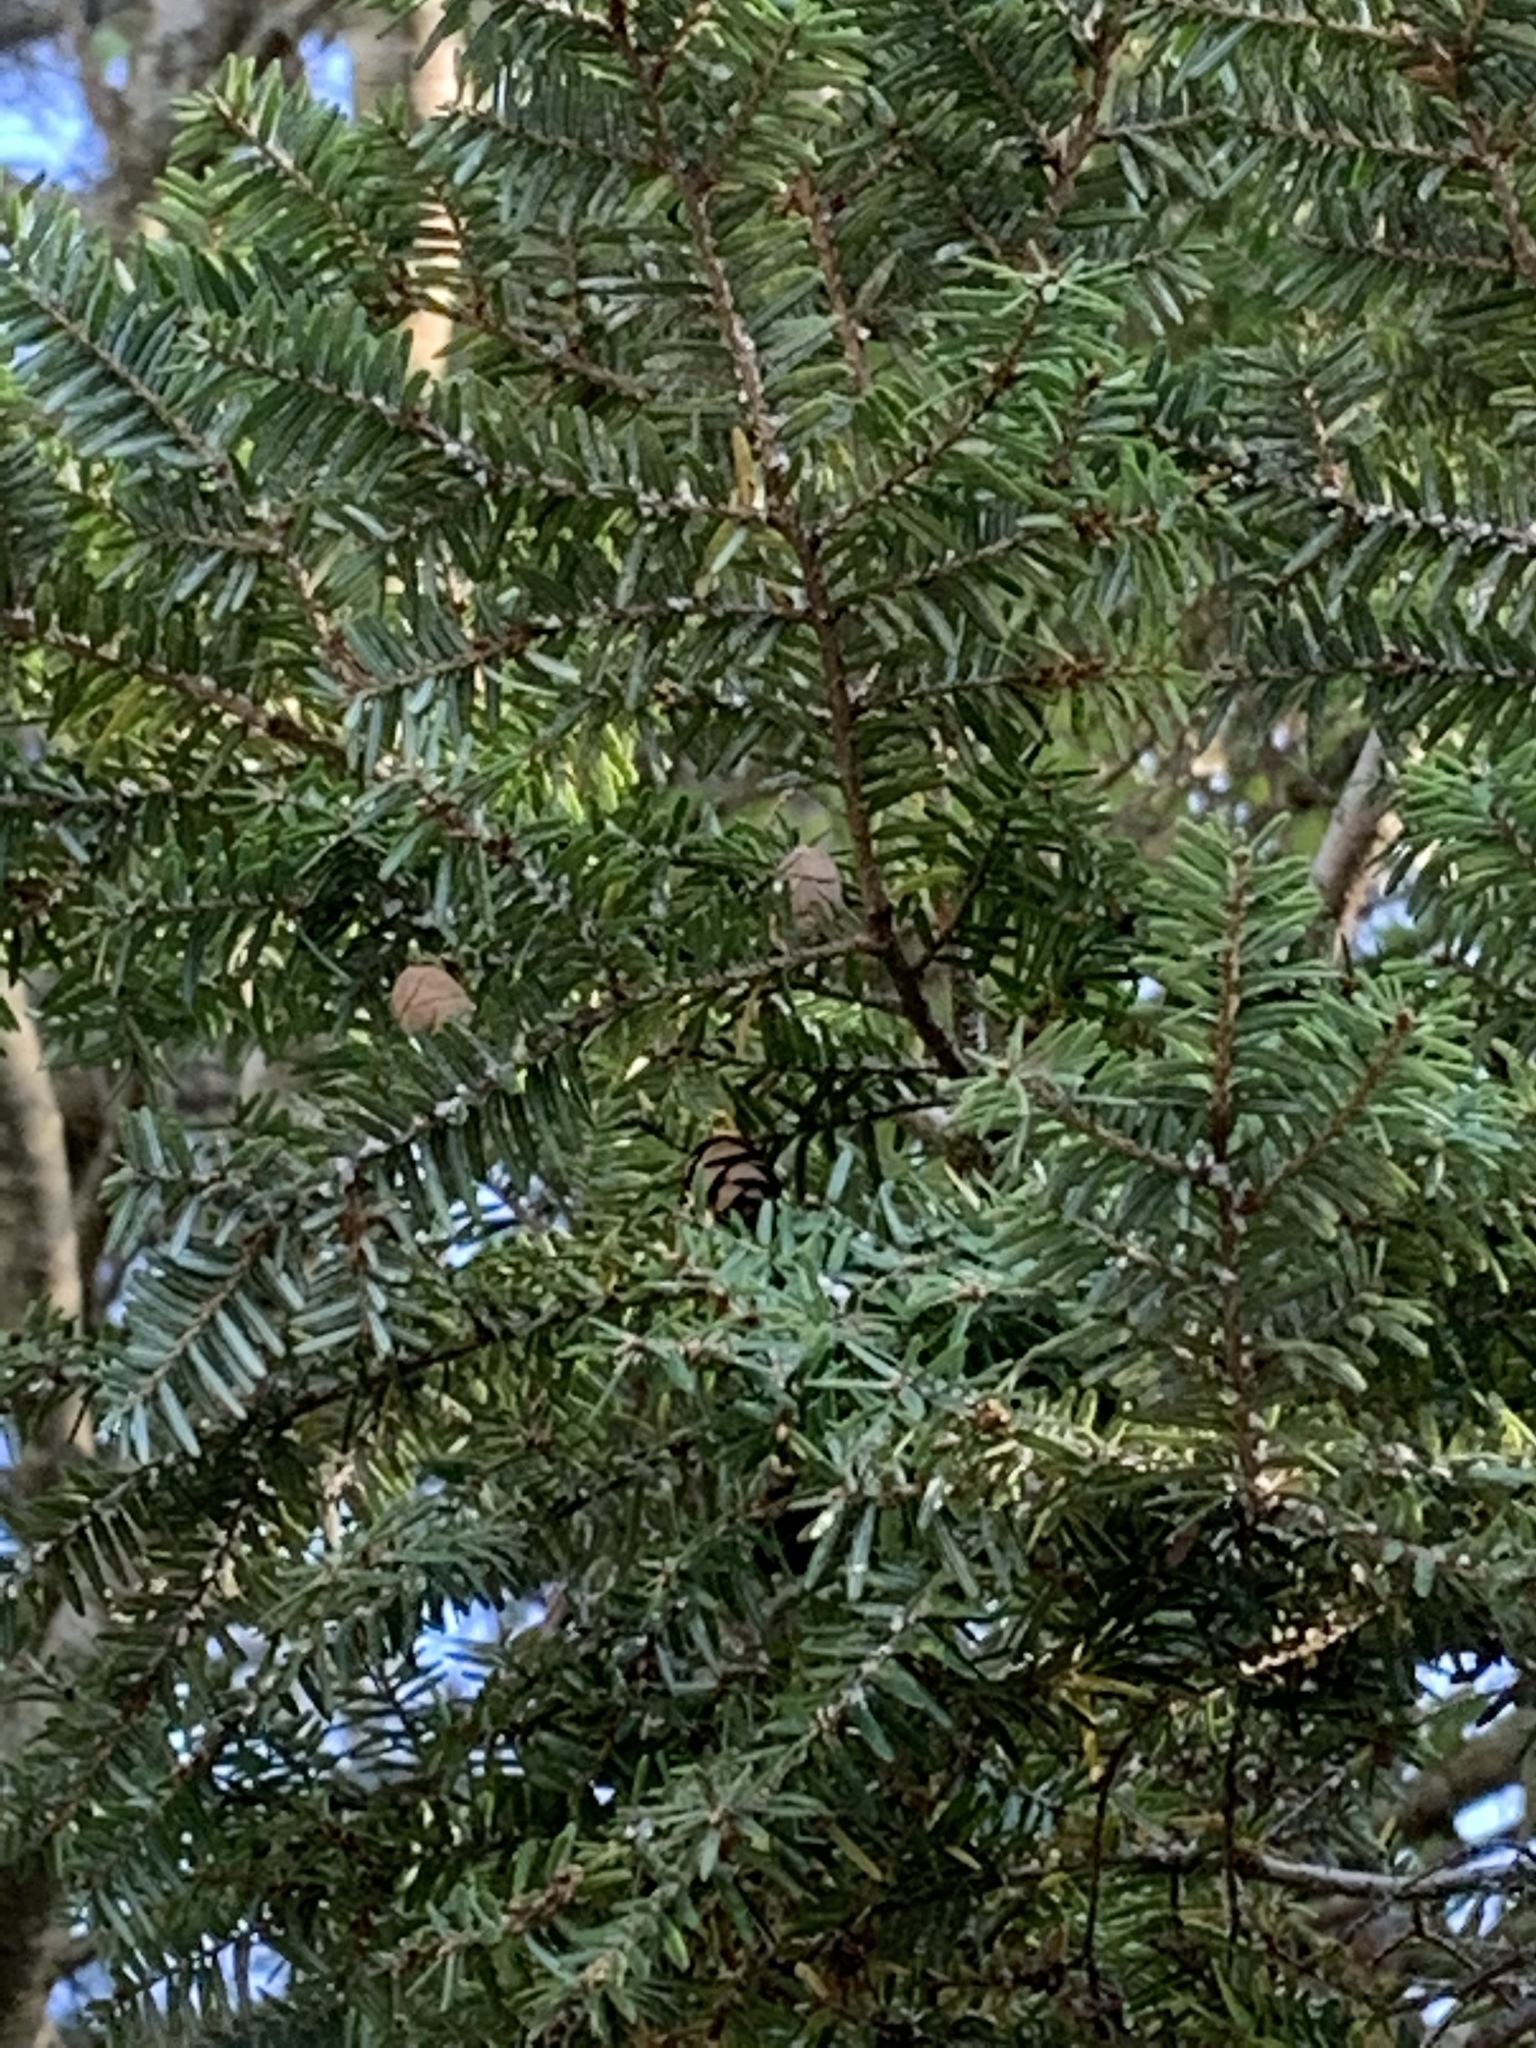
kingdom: Plantae
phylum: Tracheophyta
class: Pinopsida
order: Pinales
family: Pinaceae
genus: Tsuga
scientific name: Tsuga canadensis
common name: Eastern hemlock
